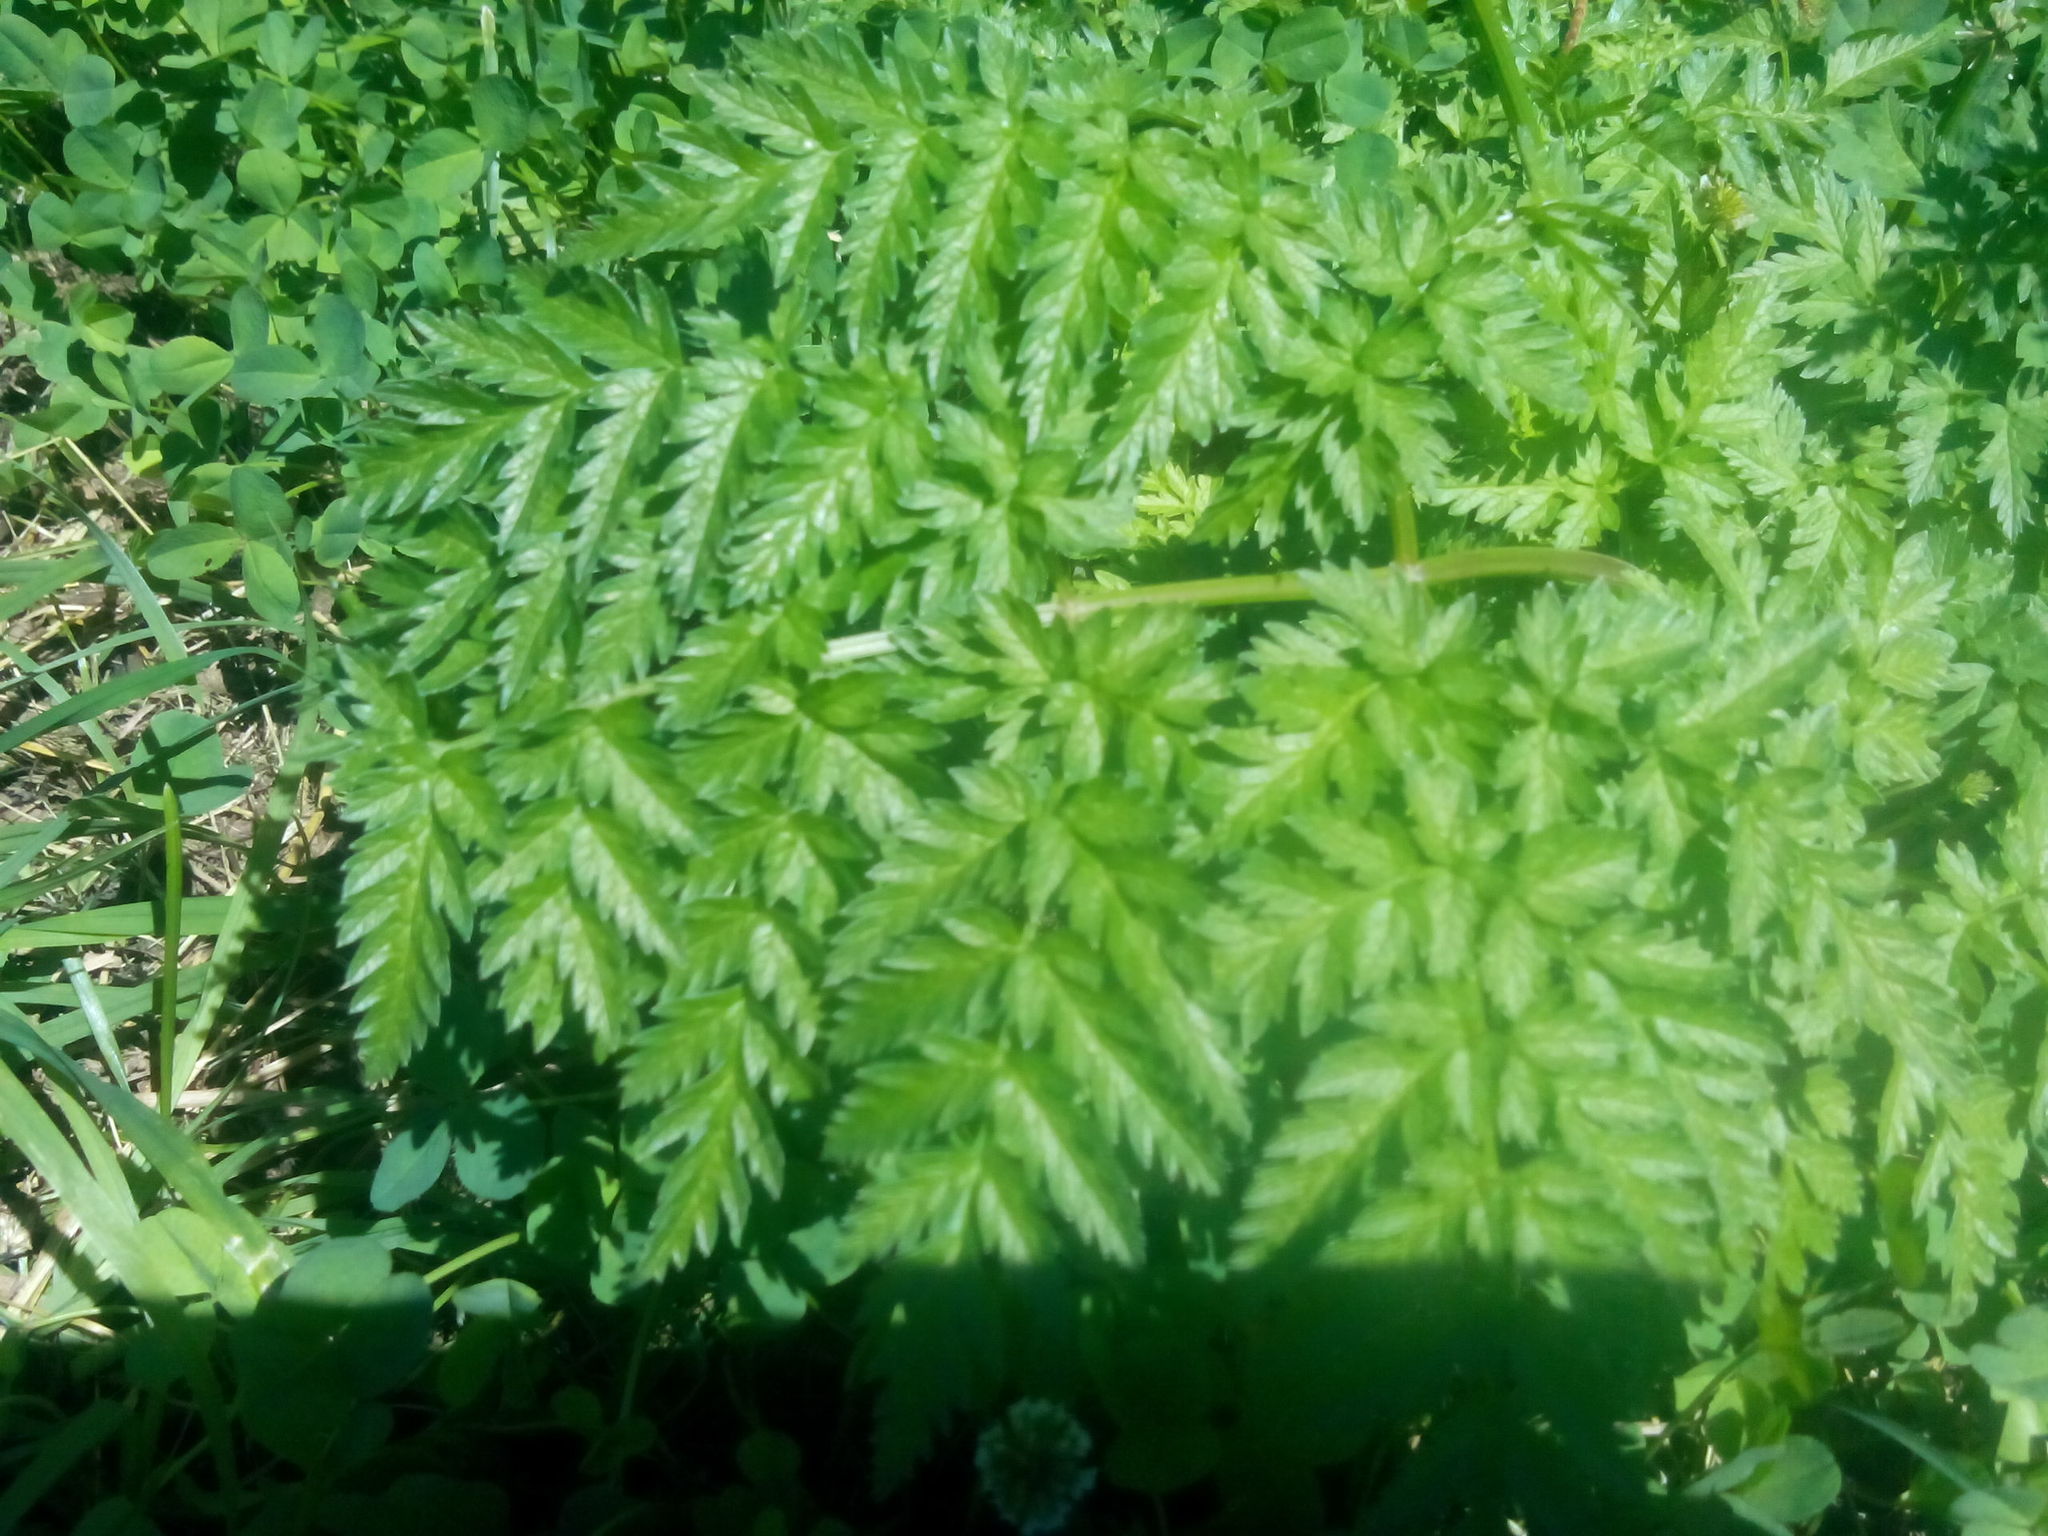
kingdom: Plantae
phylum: Tracheophyta
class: Magnoliopsida
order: Apiales
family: Apiaceae
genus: Anthriscus
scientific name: Anthriscus sylvestris
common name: Cow parsley
